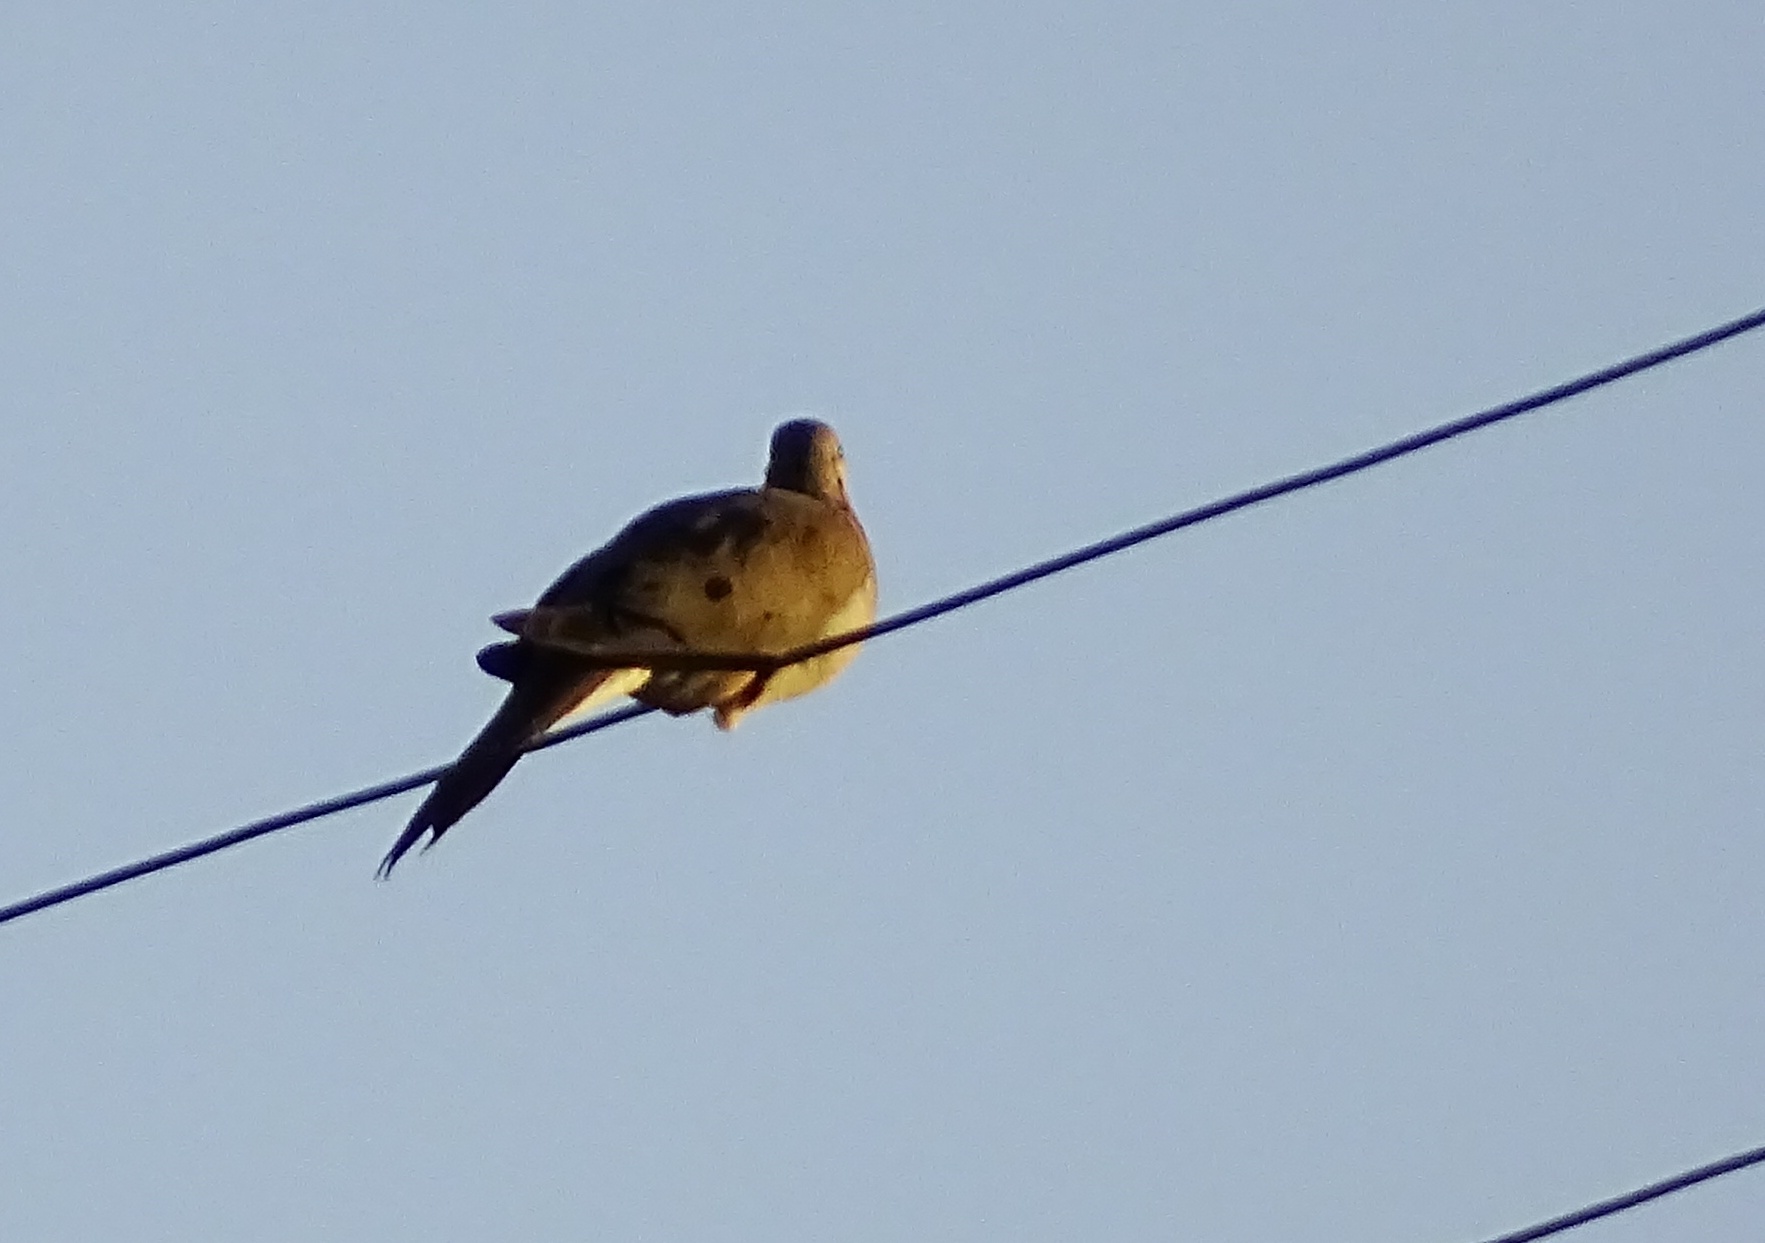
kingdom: Animalia
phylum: Chordata
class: Aves
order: Columbiformes
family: Columbidae
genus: Zenaida
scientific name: Zenaida macroura
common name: Mourning dove
